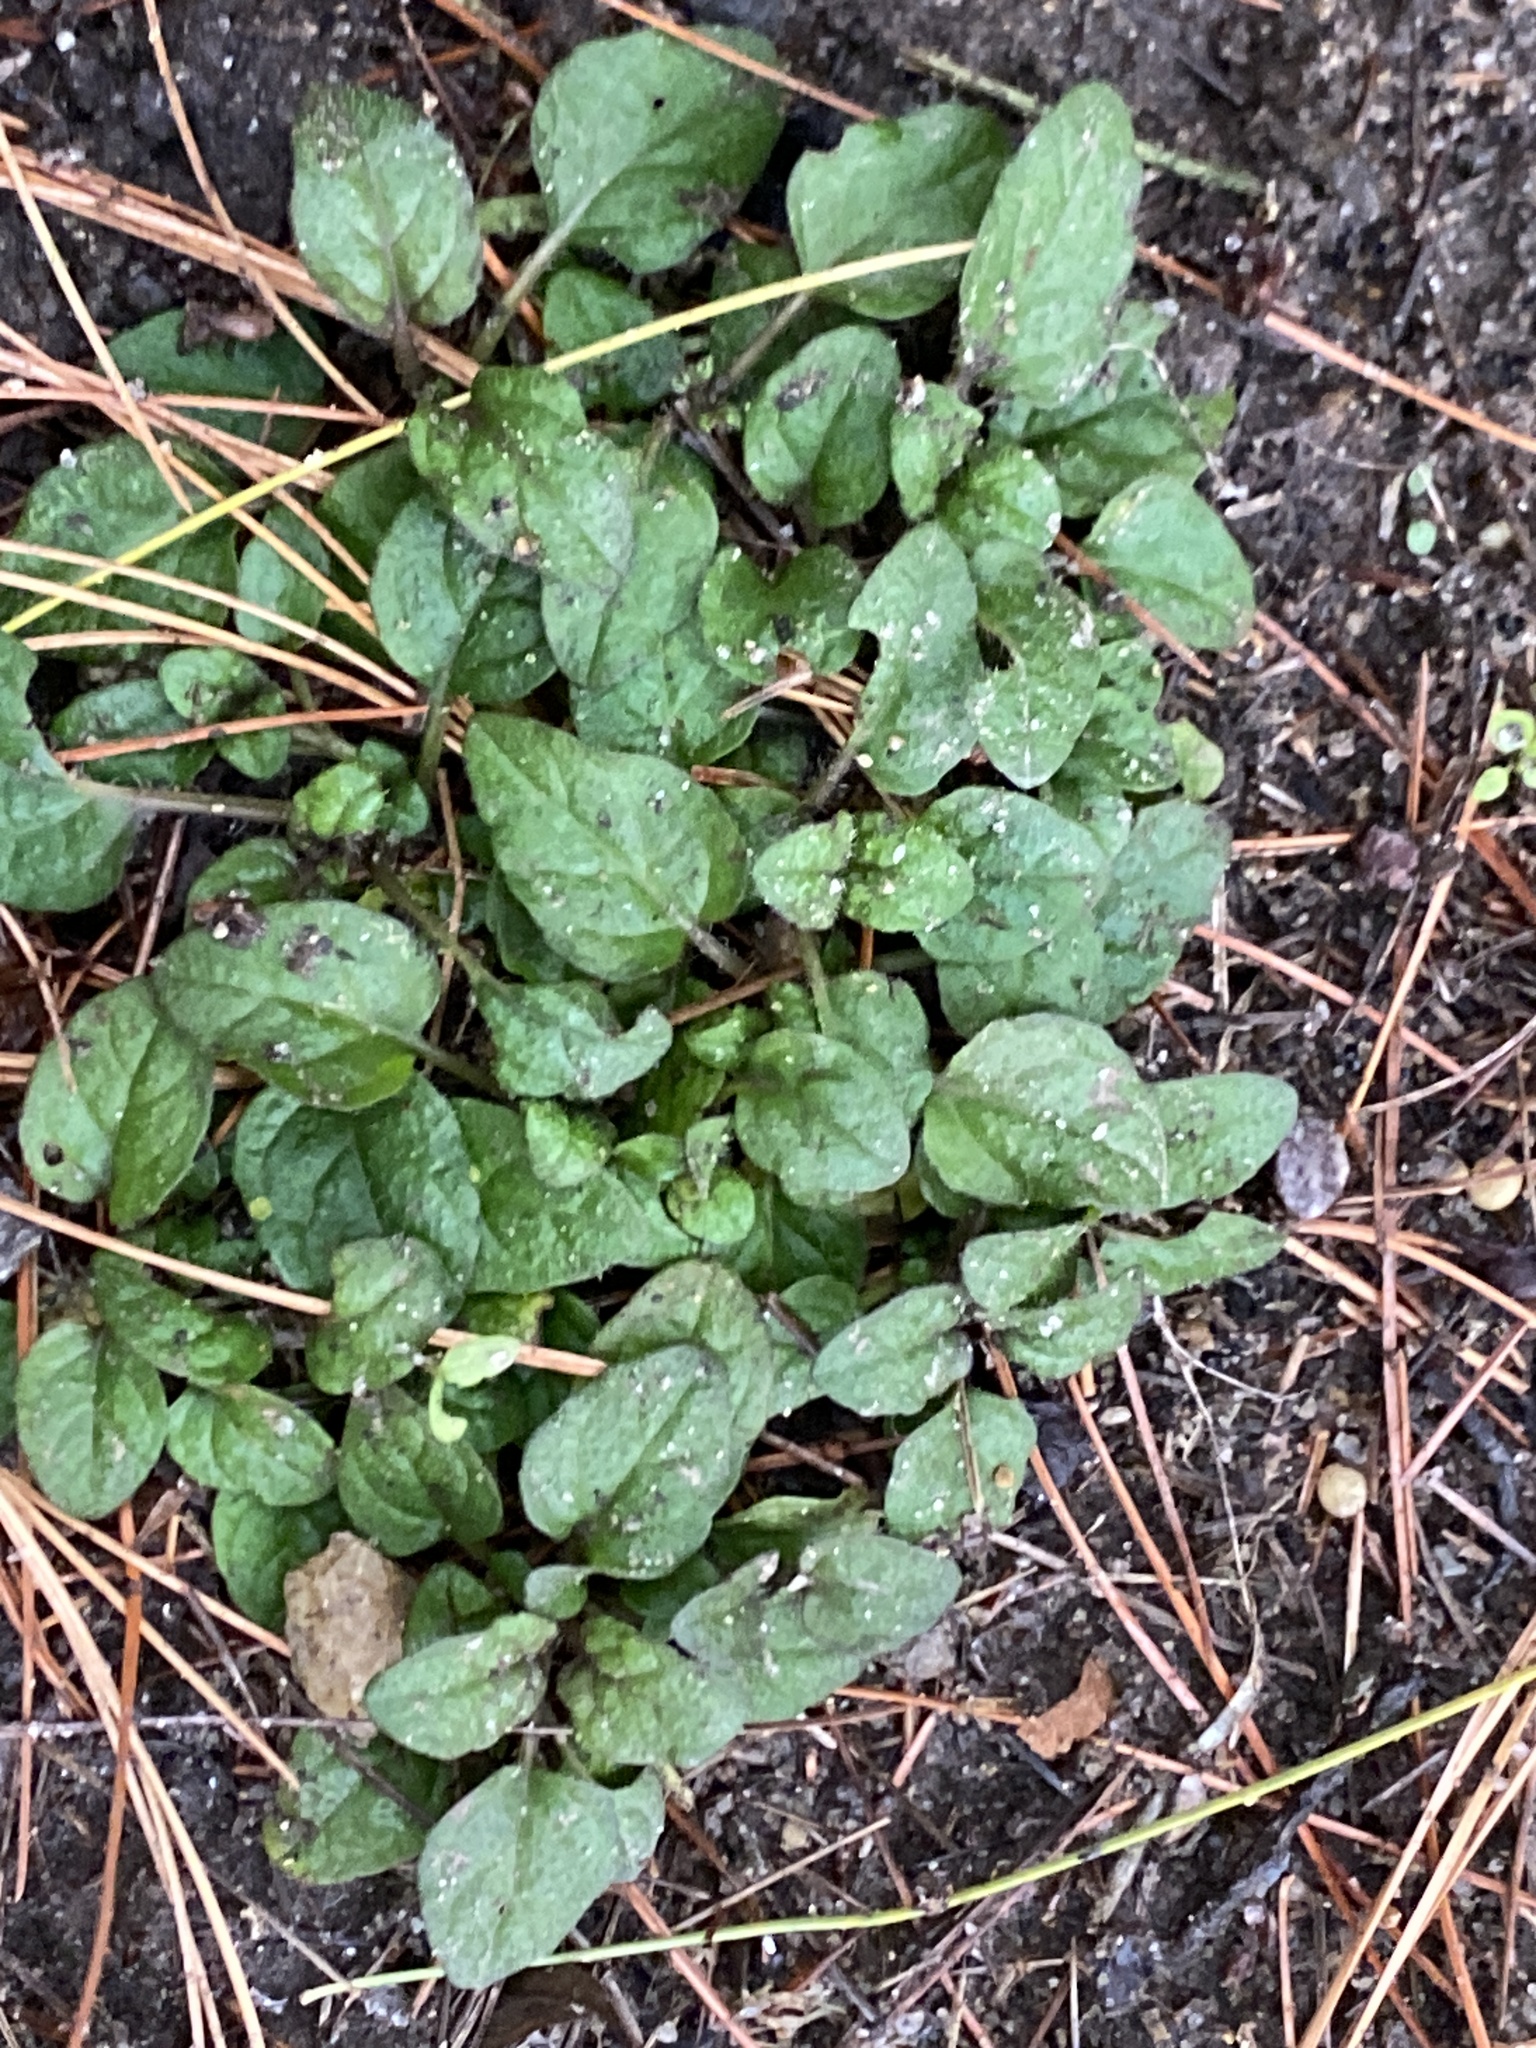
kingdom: Plantae
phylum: Tracheophyta
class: Magnoliopsida
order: Lamiales
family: Lamiaceae
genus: Prunella
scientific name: Prunella vulgaris
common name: Heal-all
